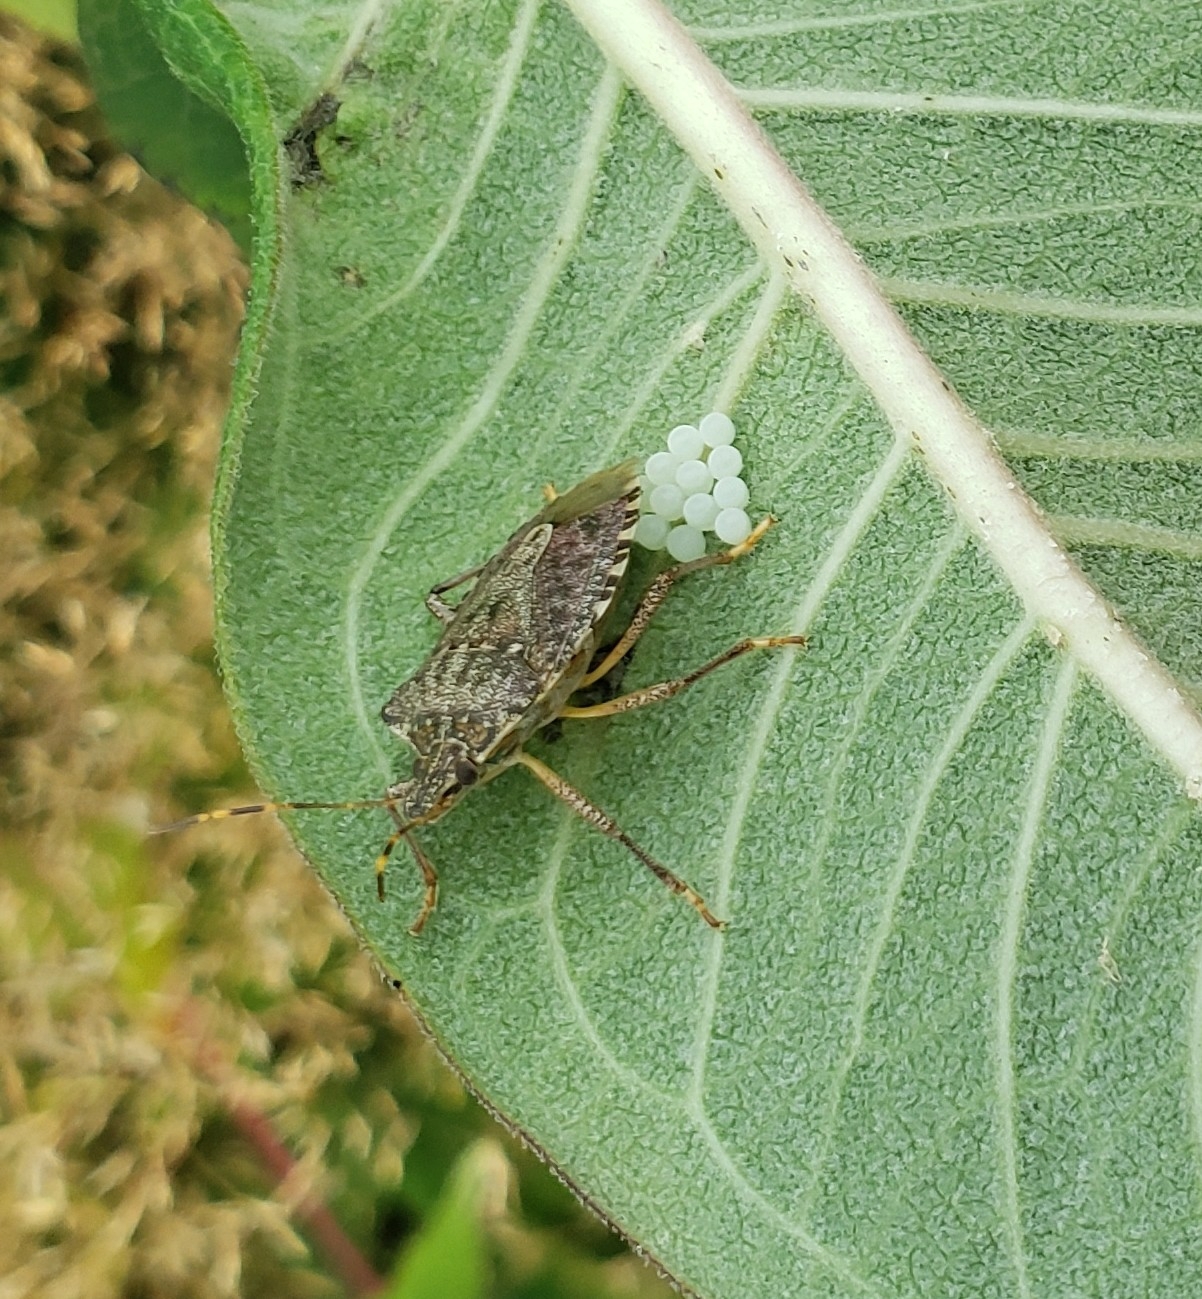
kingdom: Animalia
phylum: Arthropoda
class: Insecta
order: Hemiptera
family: Pentatomidae
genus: Halyomorpha
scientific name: Halyomorpha halys
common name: Brown marmorated stink bug
